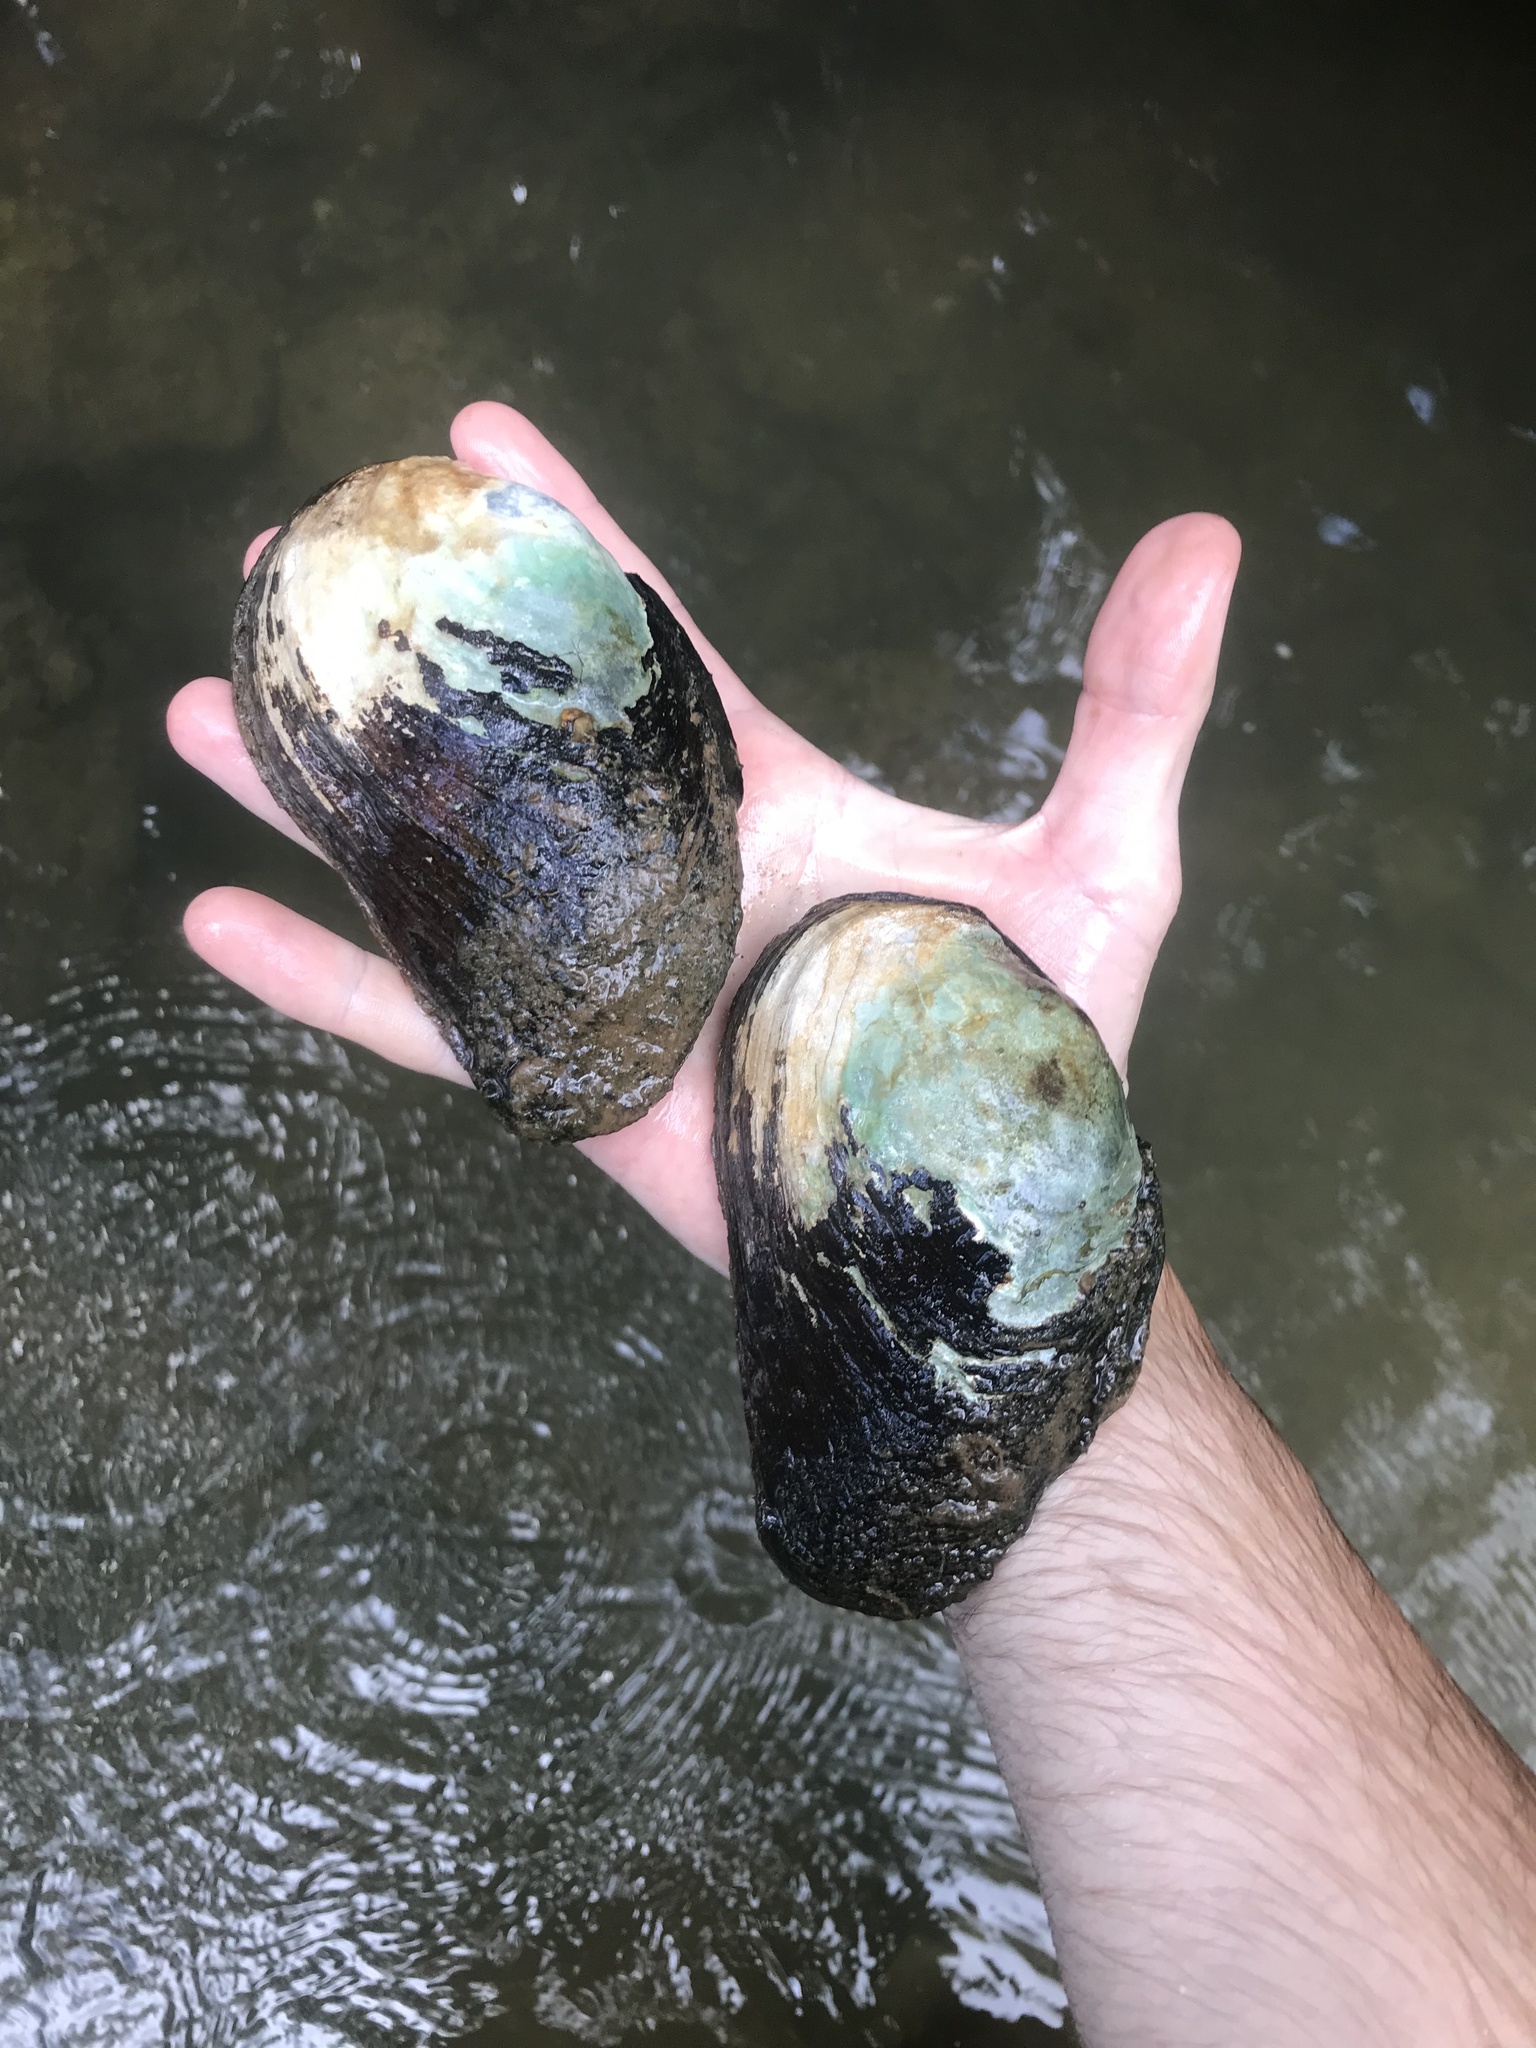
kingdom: Animalia
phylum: Mollusca
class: Bivalvia
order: Unionida
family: Unionidae
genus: Elliptio
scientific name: Elliptio crassidens
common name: Blue ham
